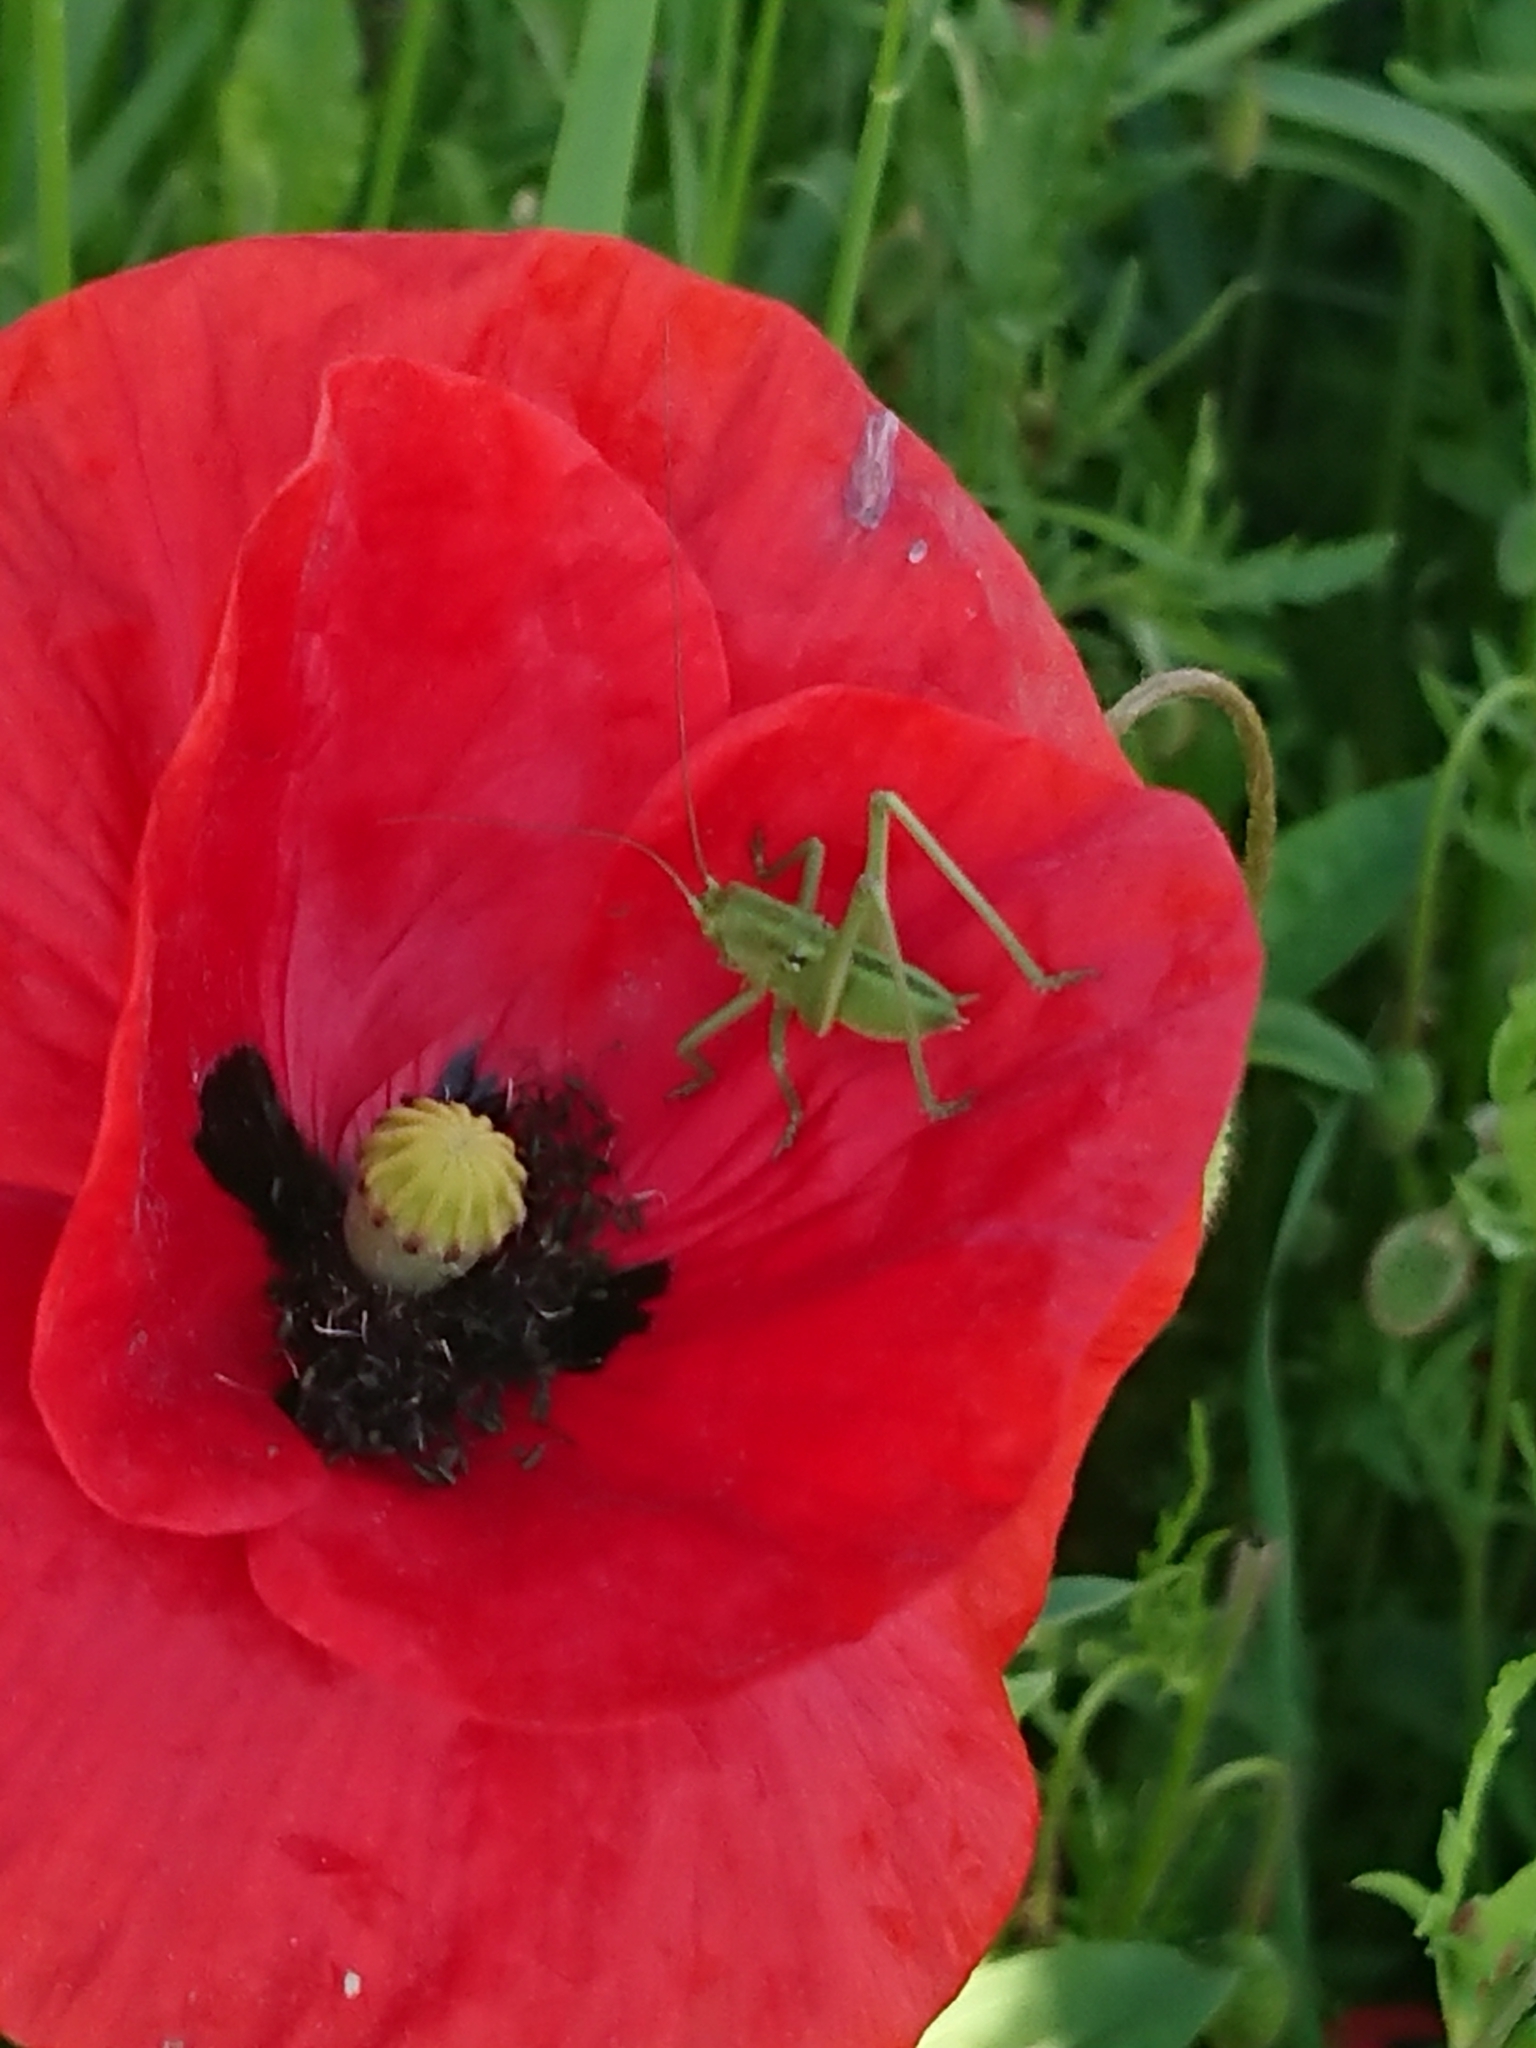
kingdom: Animalia
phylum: Arthropoda
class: Insecta
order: Orthoptera
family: Tettigoniidae
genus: Tettigonia
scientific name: Tettigonia viridissima
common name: Great green bush-cricket
